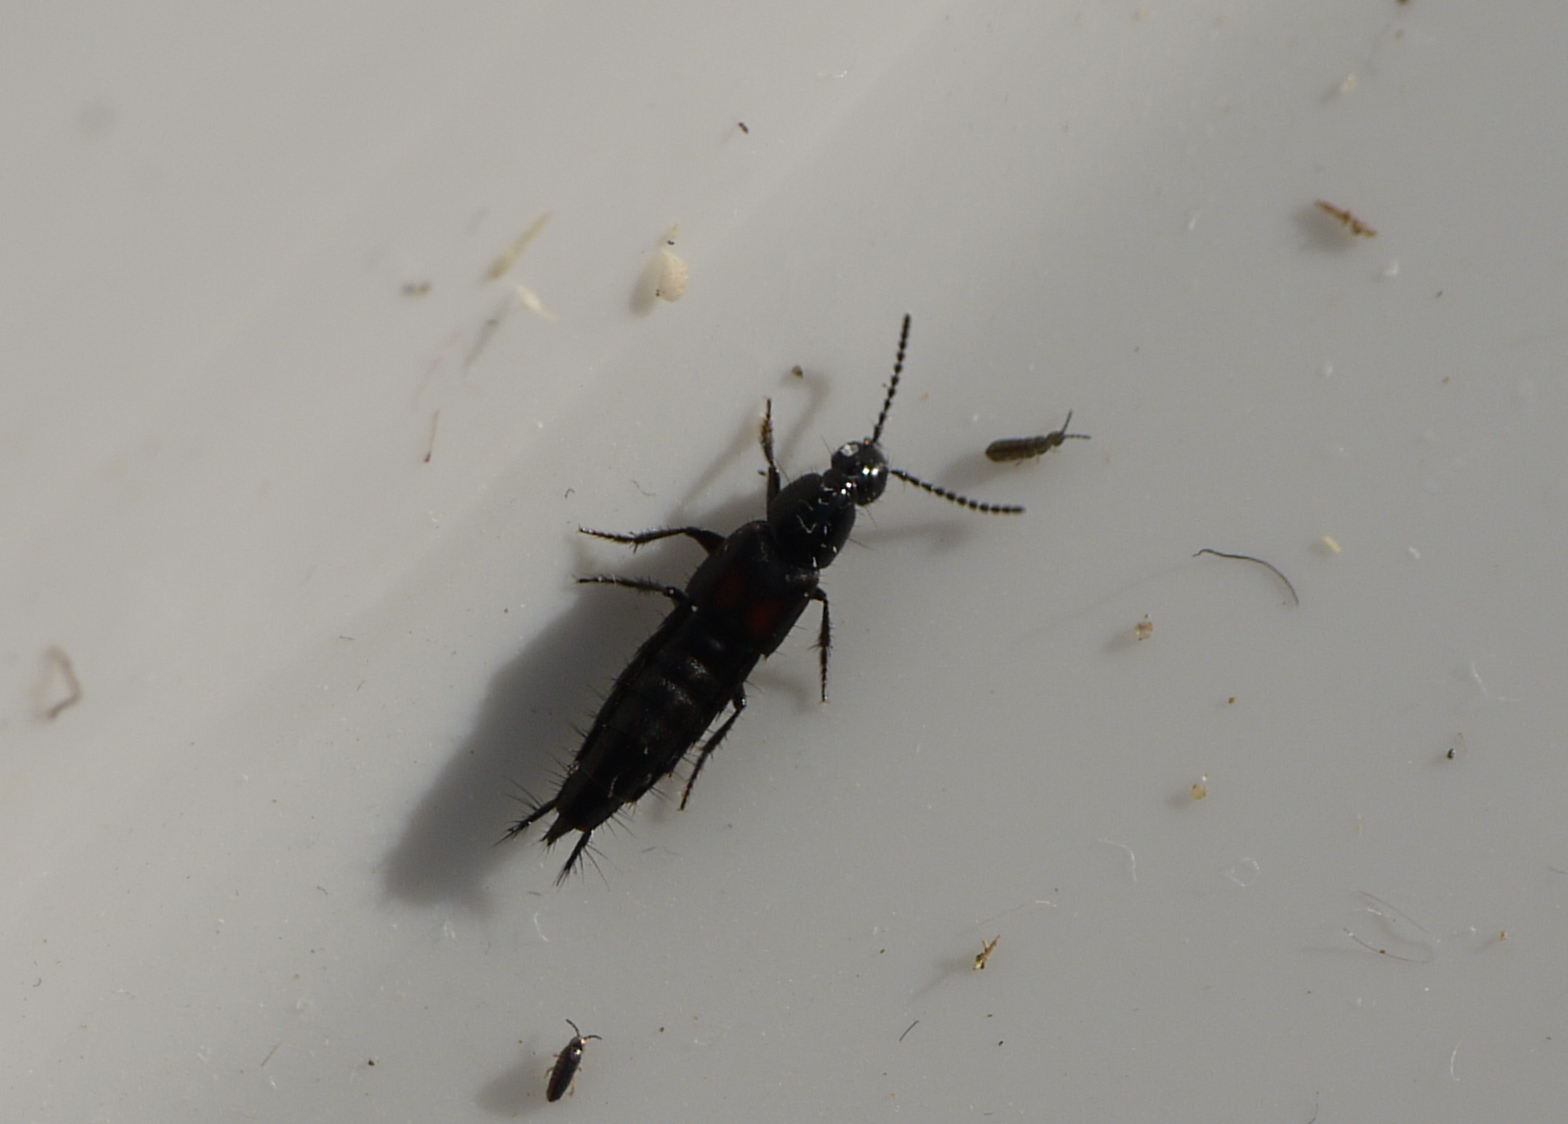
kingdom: Animalia
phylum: Arthropoda
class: Insecta
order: Coleoptera
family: Staphylinidae
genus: Philonthus
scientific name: Philonthus cruentatus
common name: Beetle
